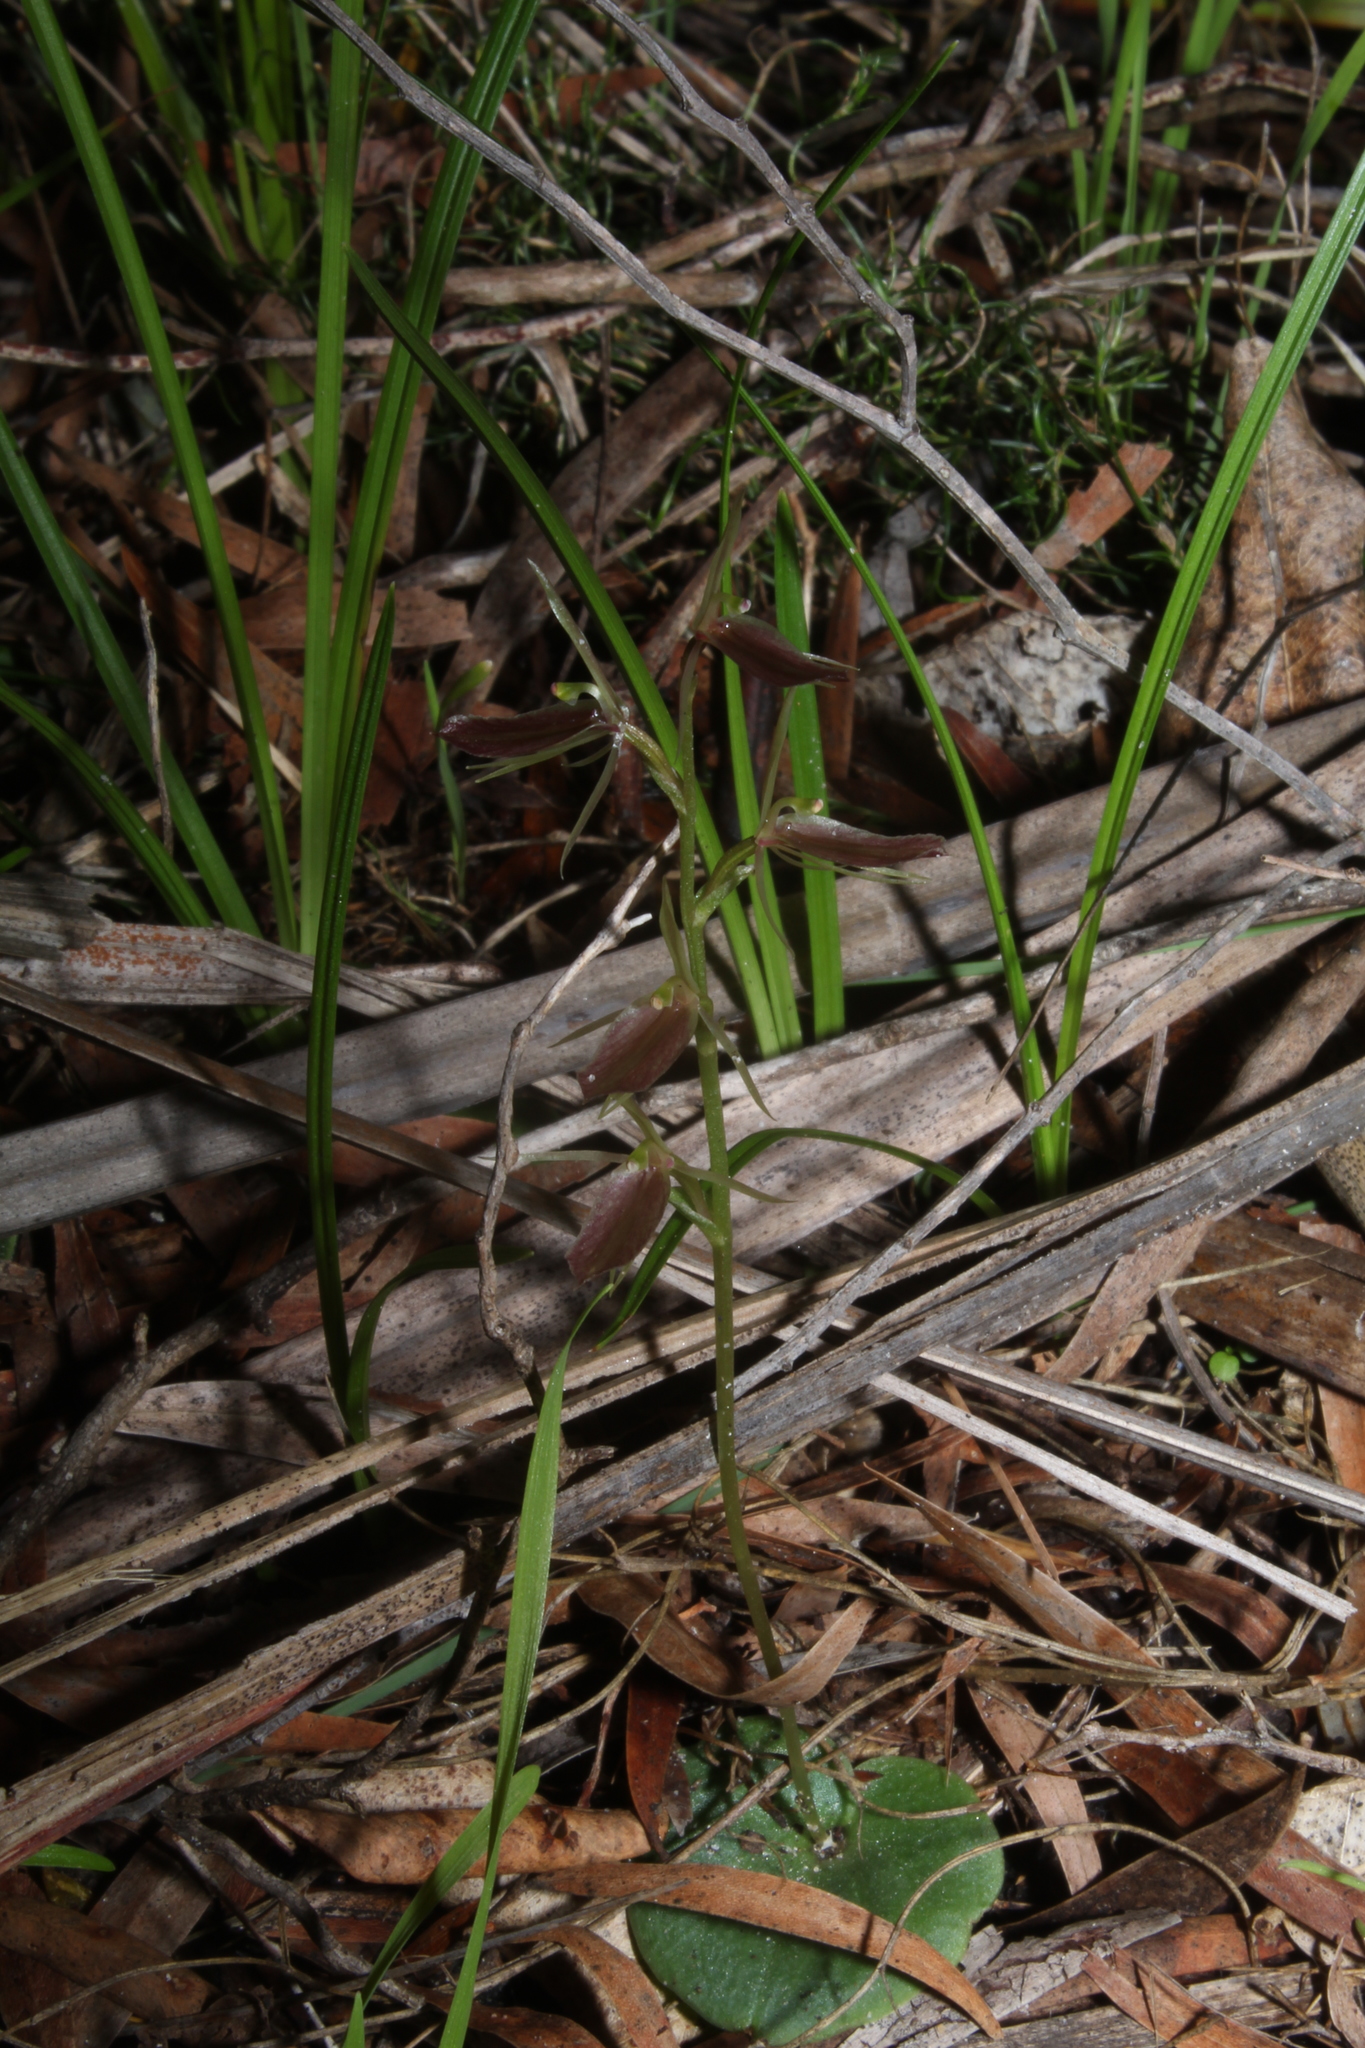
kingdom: Plantae
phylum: Tracheophyta
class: Liliopsida
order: Asparagales
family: Orchidaceae
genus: Cyrtostylis
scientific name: Cyrtostylis robusta
